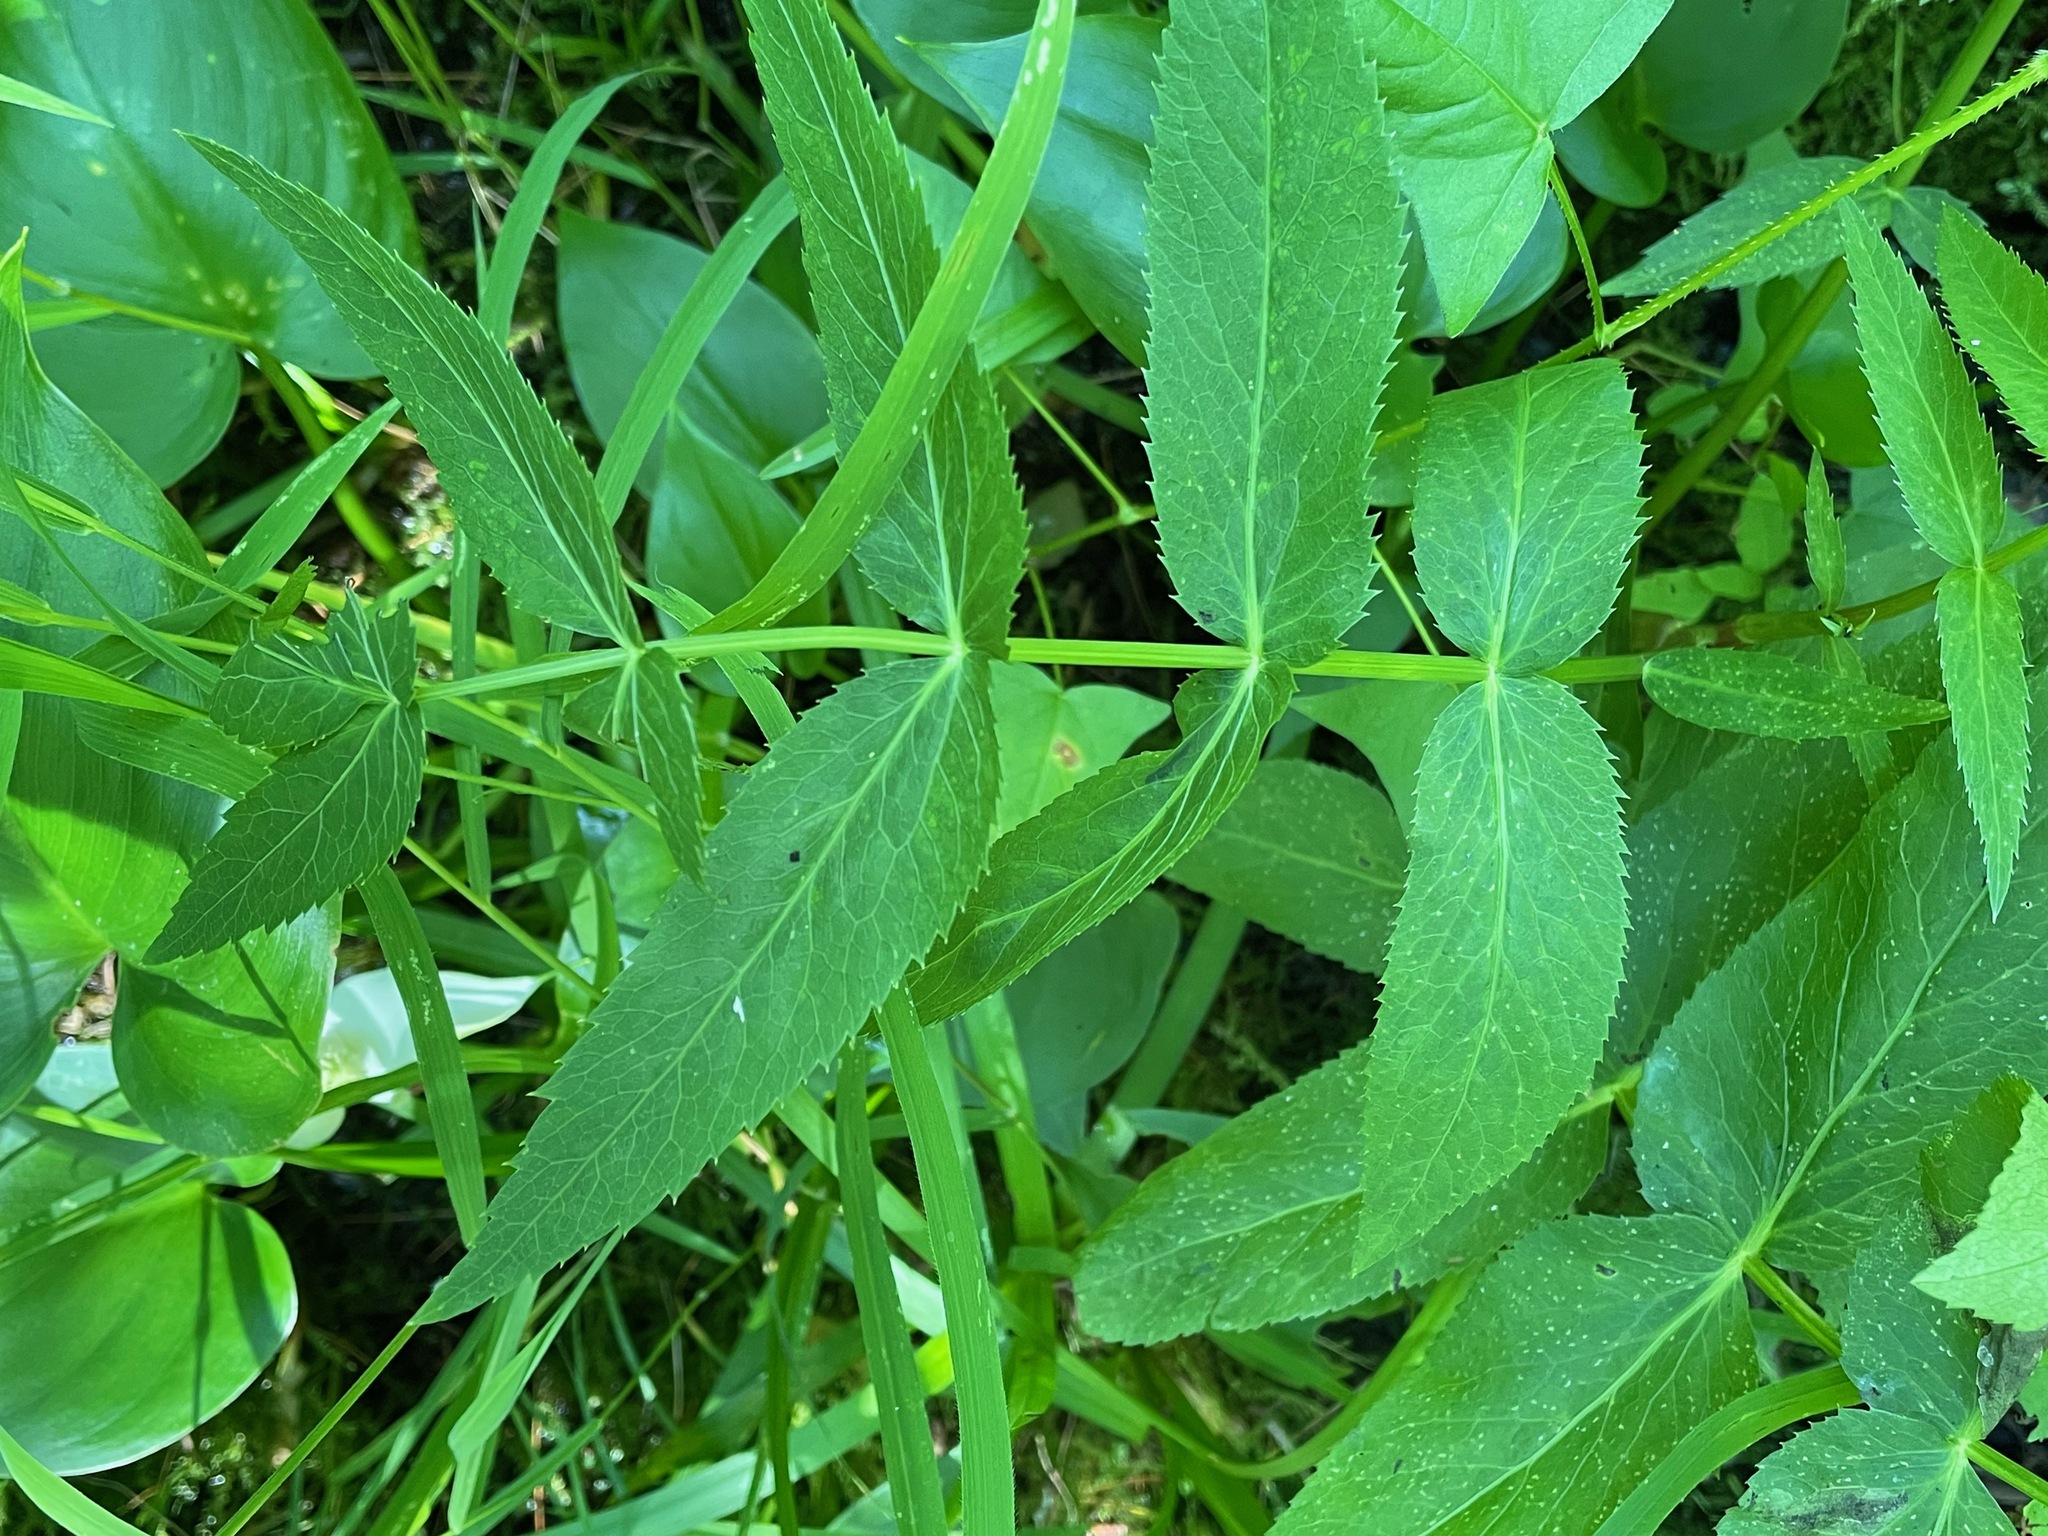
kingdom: Plantae
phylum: Tracheophyta
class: Magnoliopsida
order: Apiales
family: Apiaceae
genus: Sium
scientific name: Sium suave
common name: Hemlock water-parsnip
